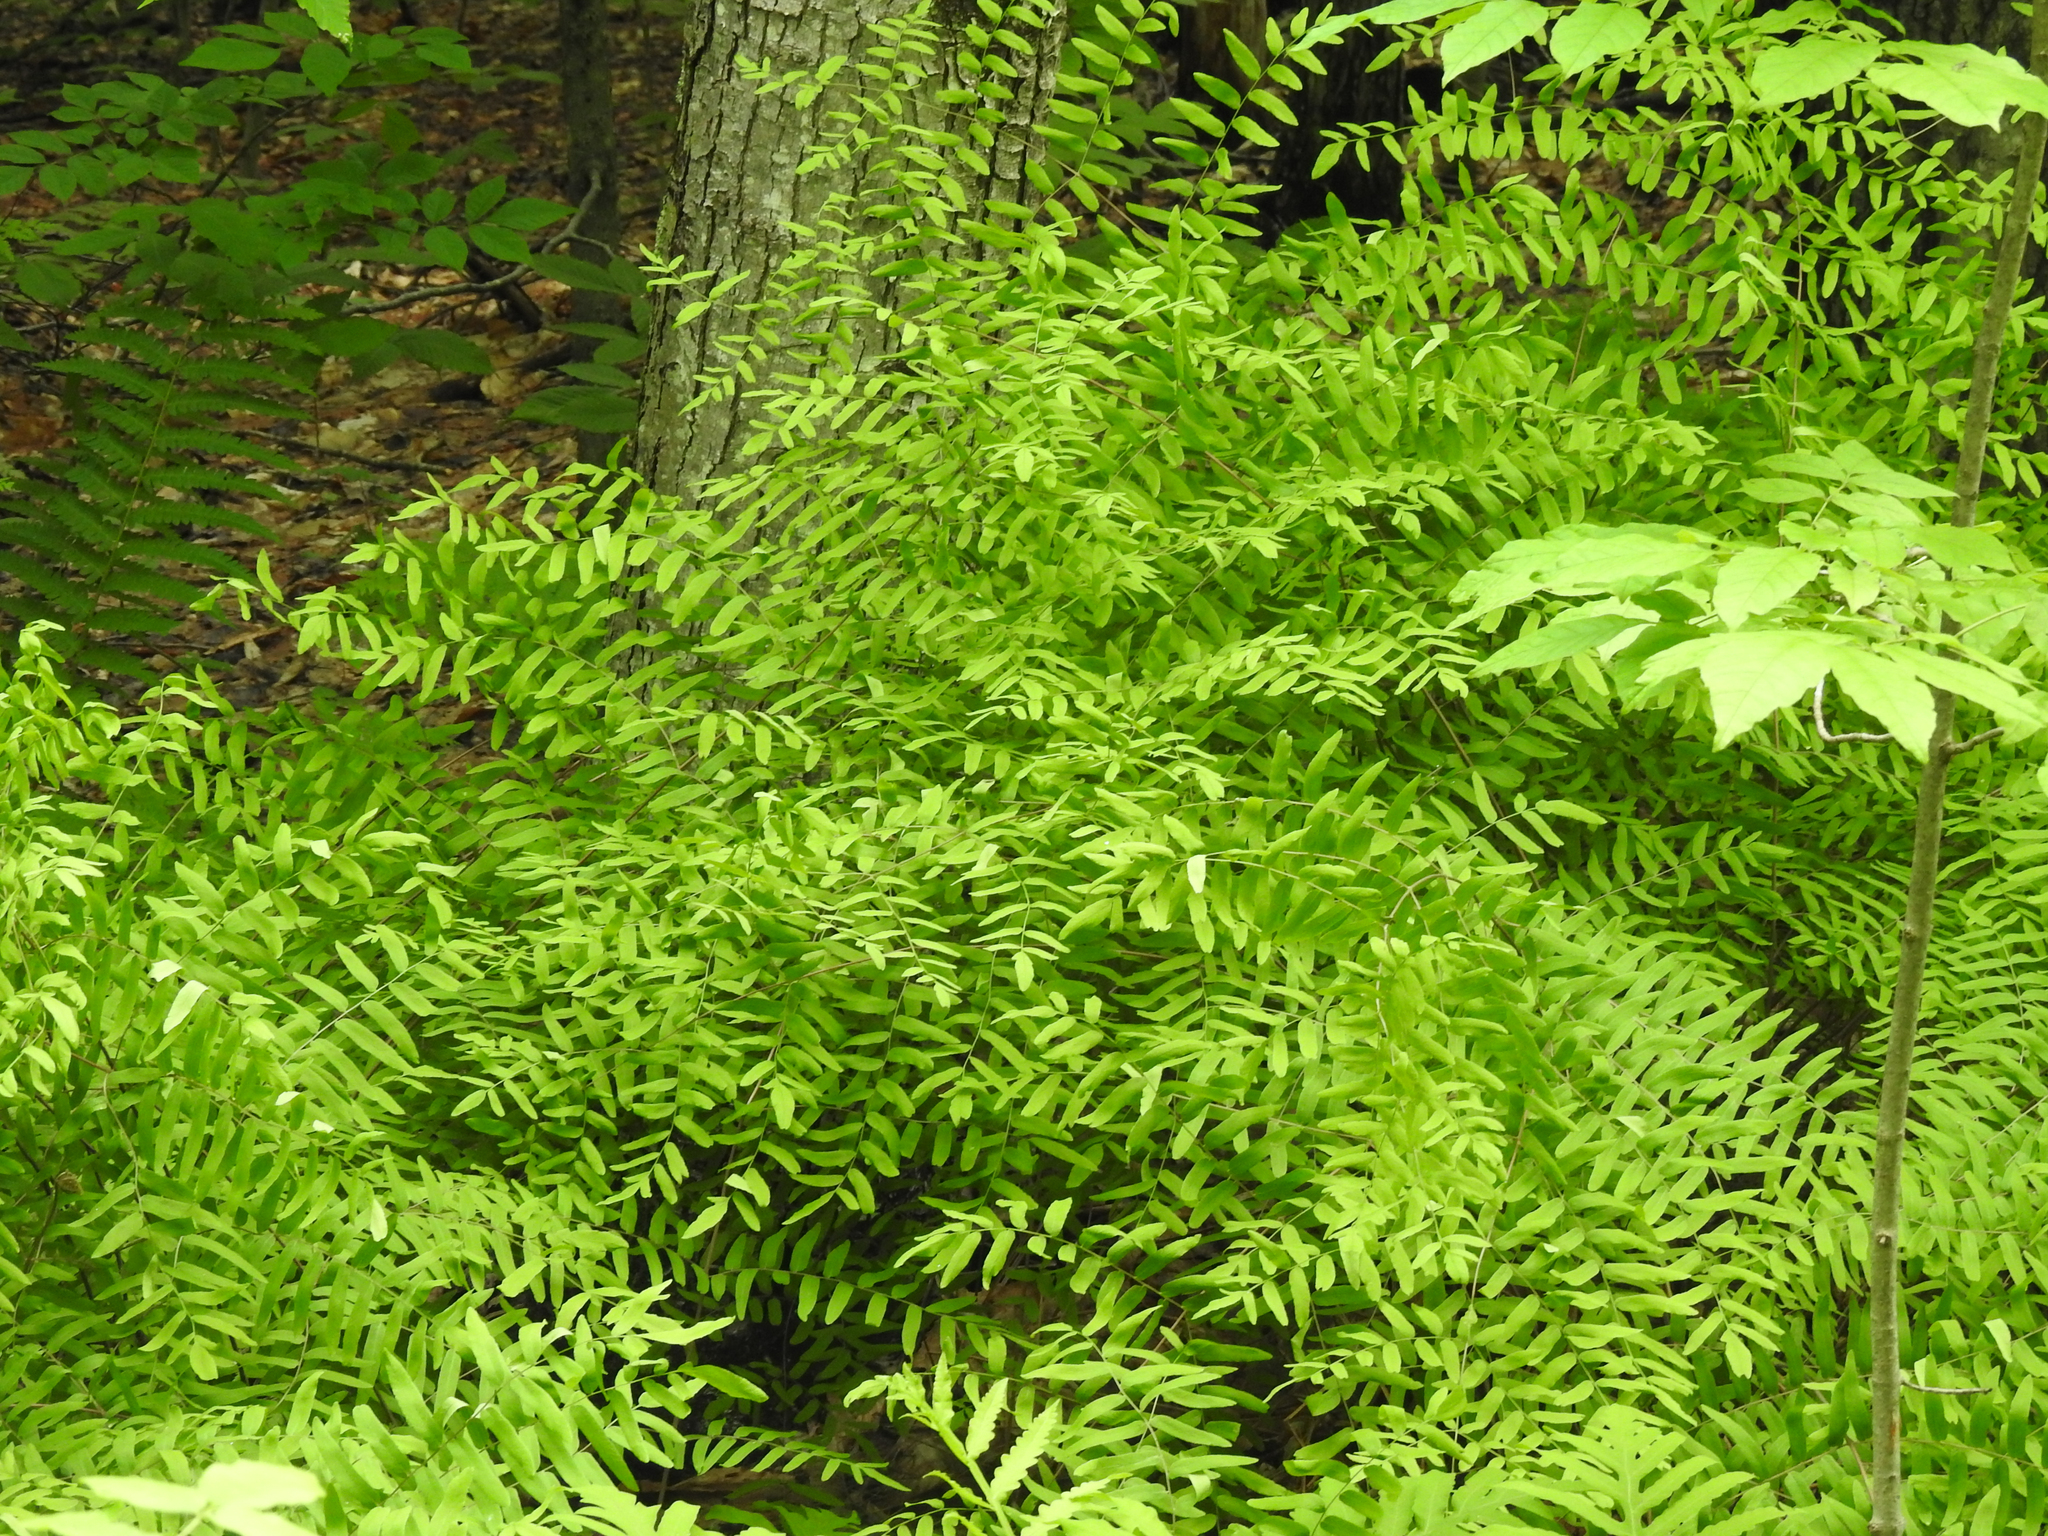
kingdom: Plantae
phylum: Tracheophyta
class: Polypodiopsida
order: Osmundales
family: Osmundaceae
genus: Osmunda
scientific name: Osmunda spectabilis
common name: American royal fern
